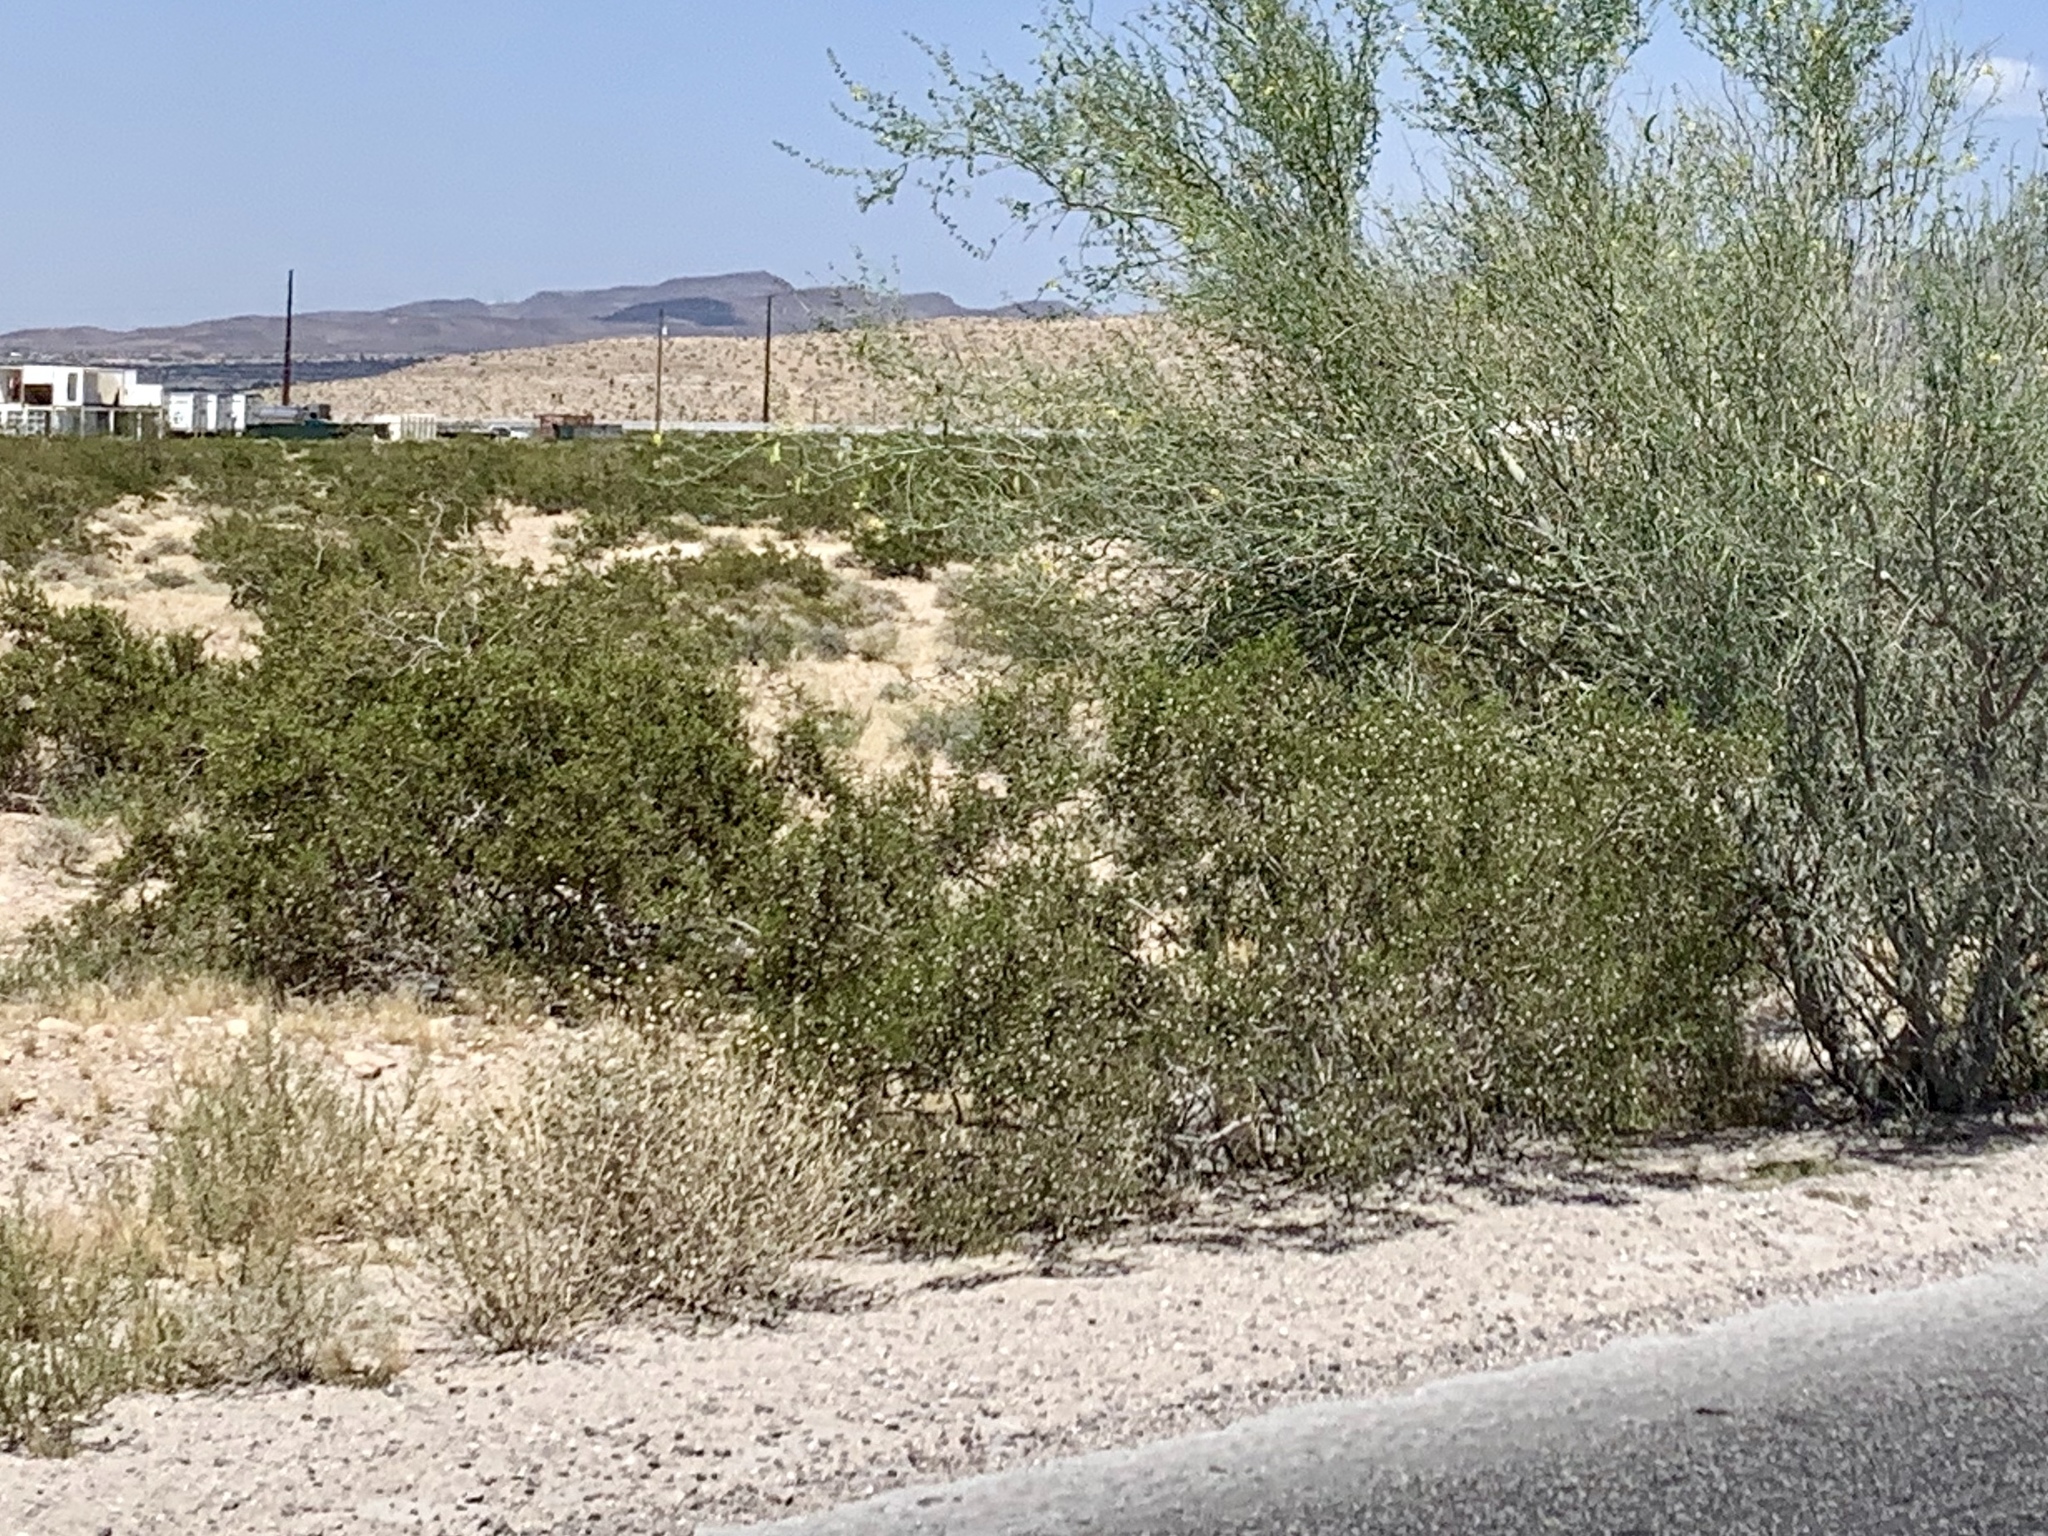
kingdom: Plantae
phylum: Tracheophyta
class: Magnoliopsida
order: Zygophyllales
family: Zygophyllaceae
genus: Larrea
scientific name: Larrea tridentata
